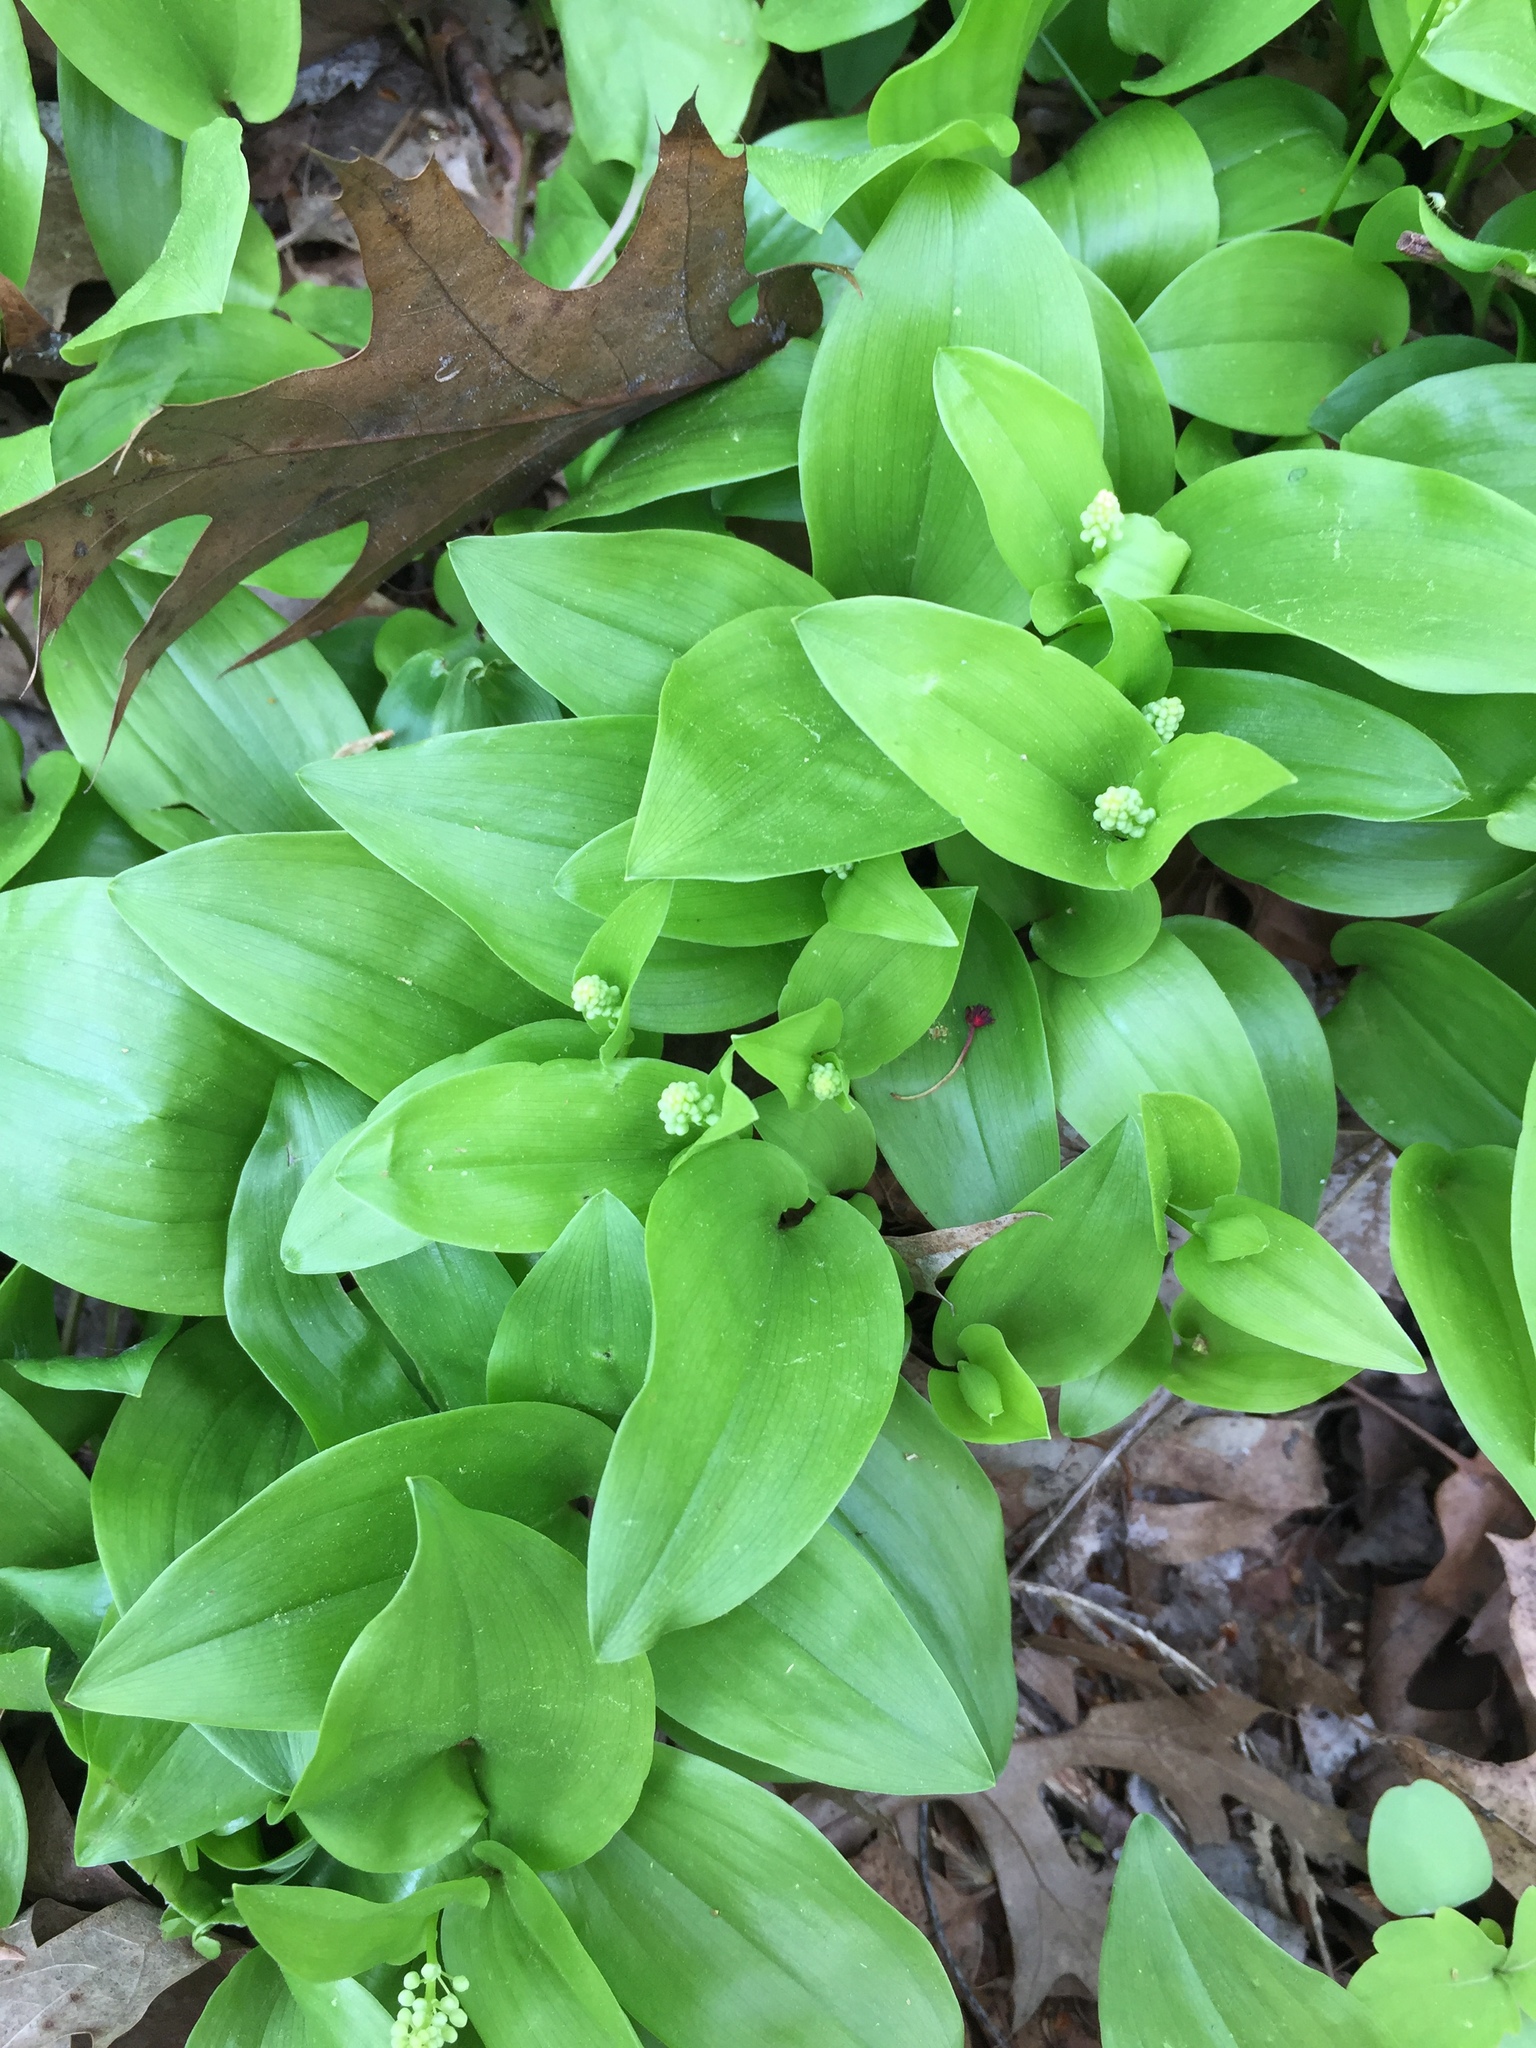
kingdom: Plantae
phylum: Tracheophyta
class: Liliopsida
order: Asparagales
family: Asparagaceae
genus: Maianthemum
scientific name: Maianthemum canadense
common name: False lily-of-the-valley
